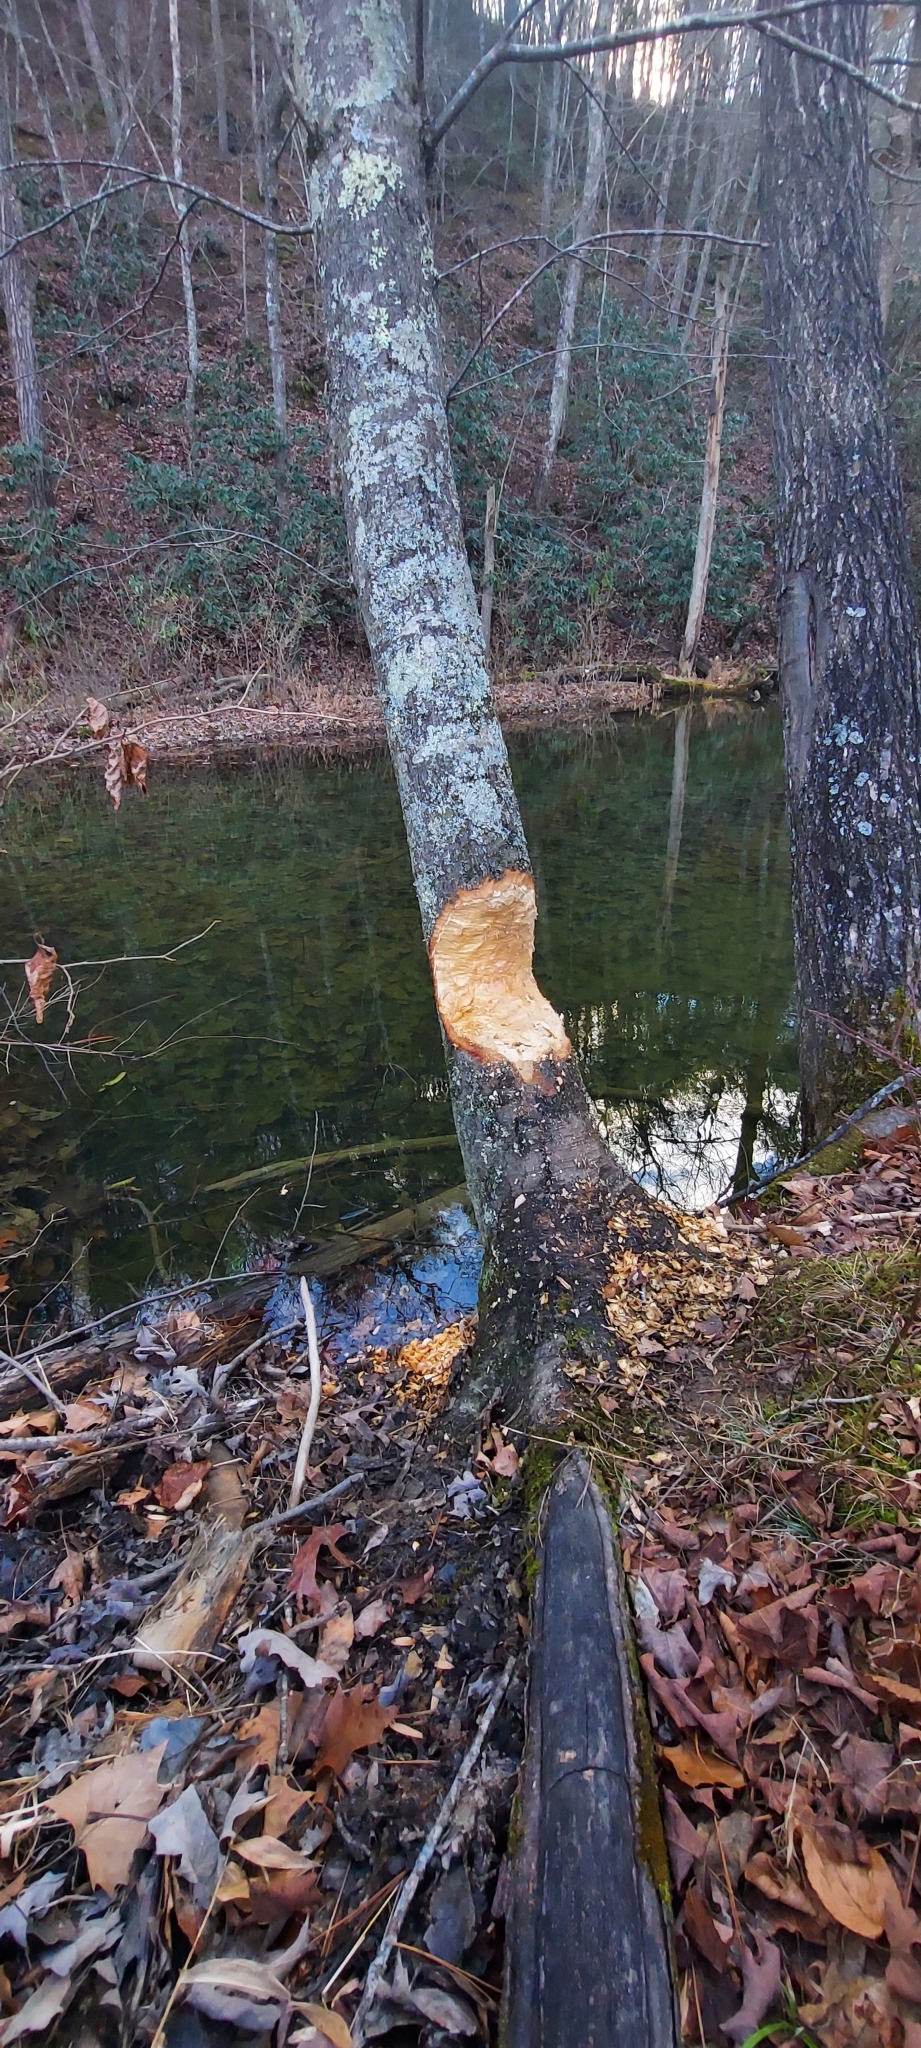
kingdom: Animalia
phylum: Chordata
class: Mammalia
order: Rodentia
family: Castoridae
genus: Castor
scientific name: Castor canadensis
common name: American beaver
